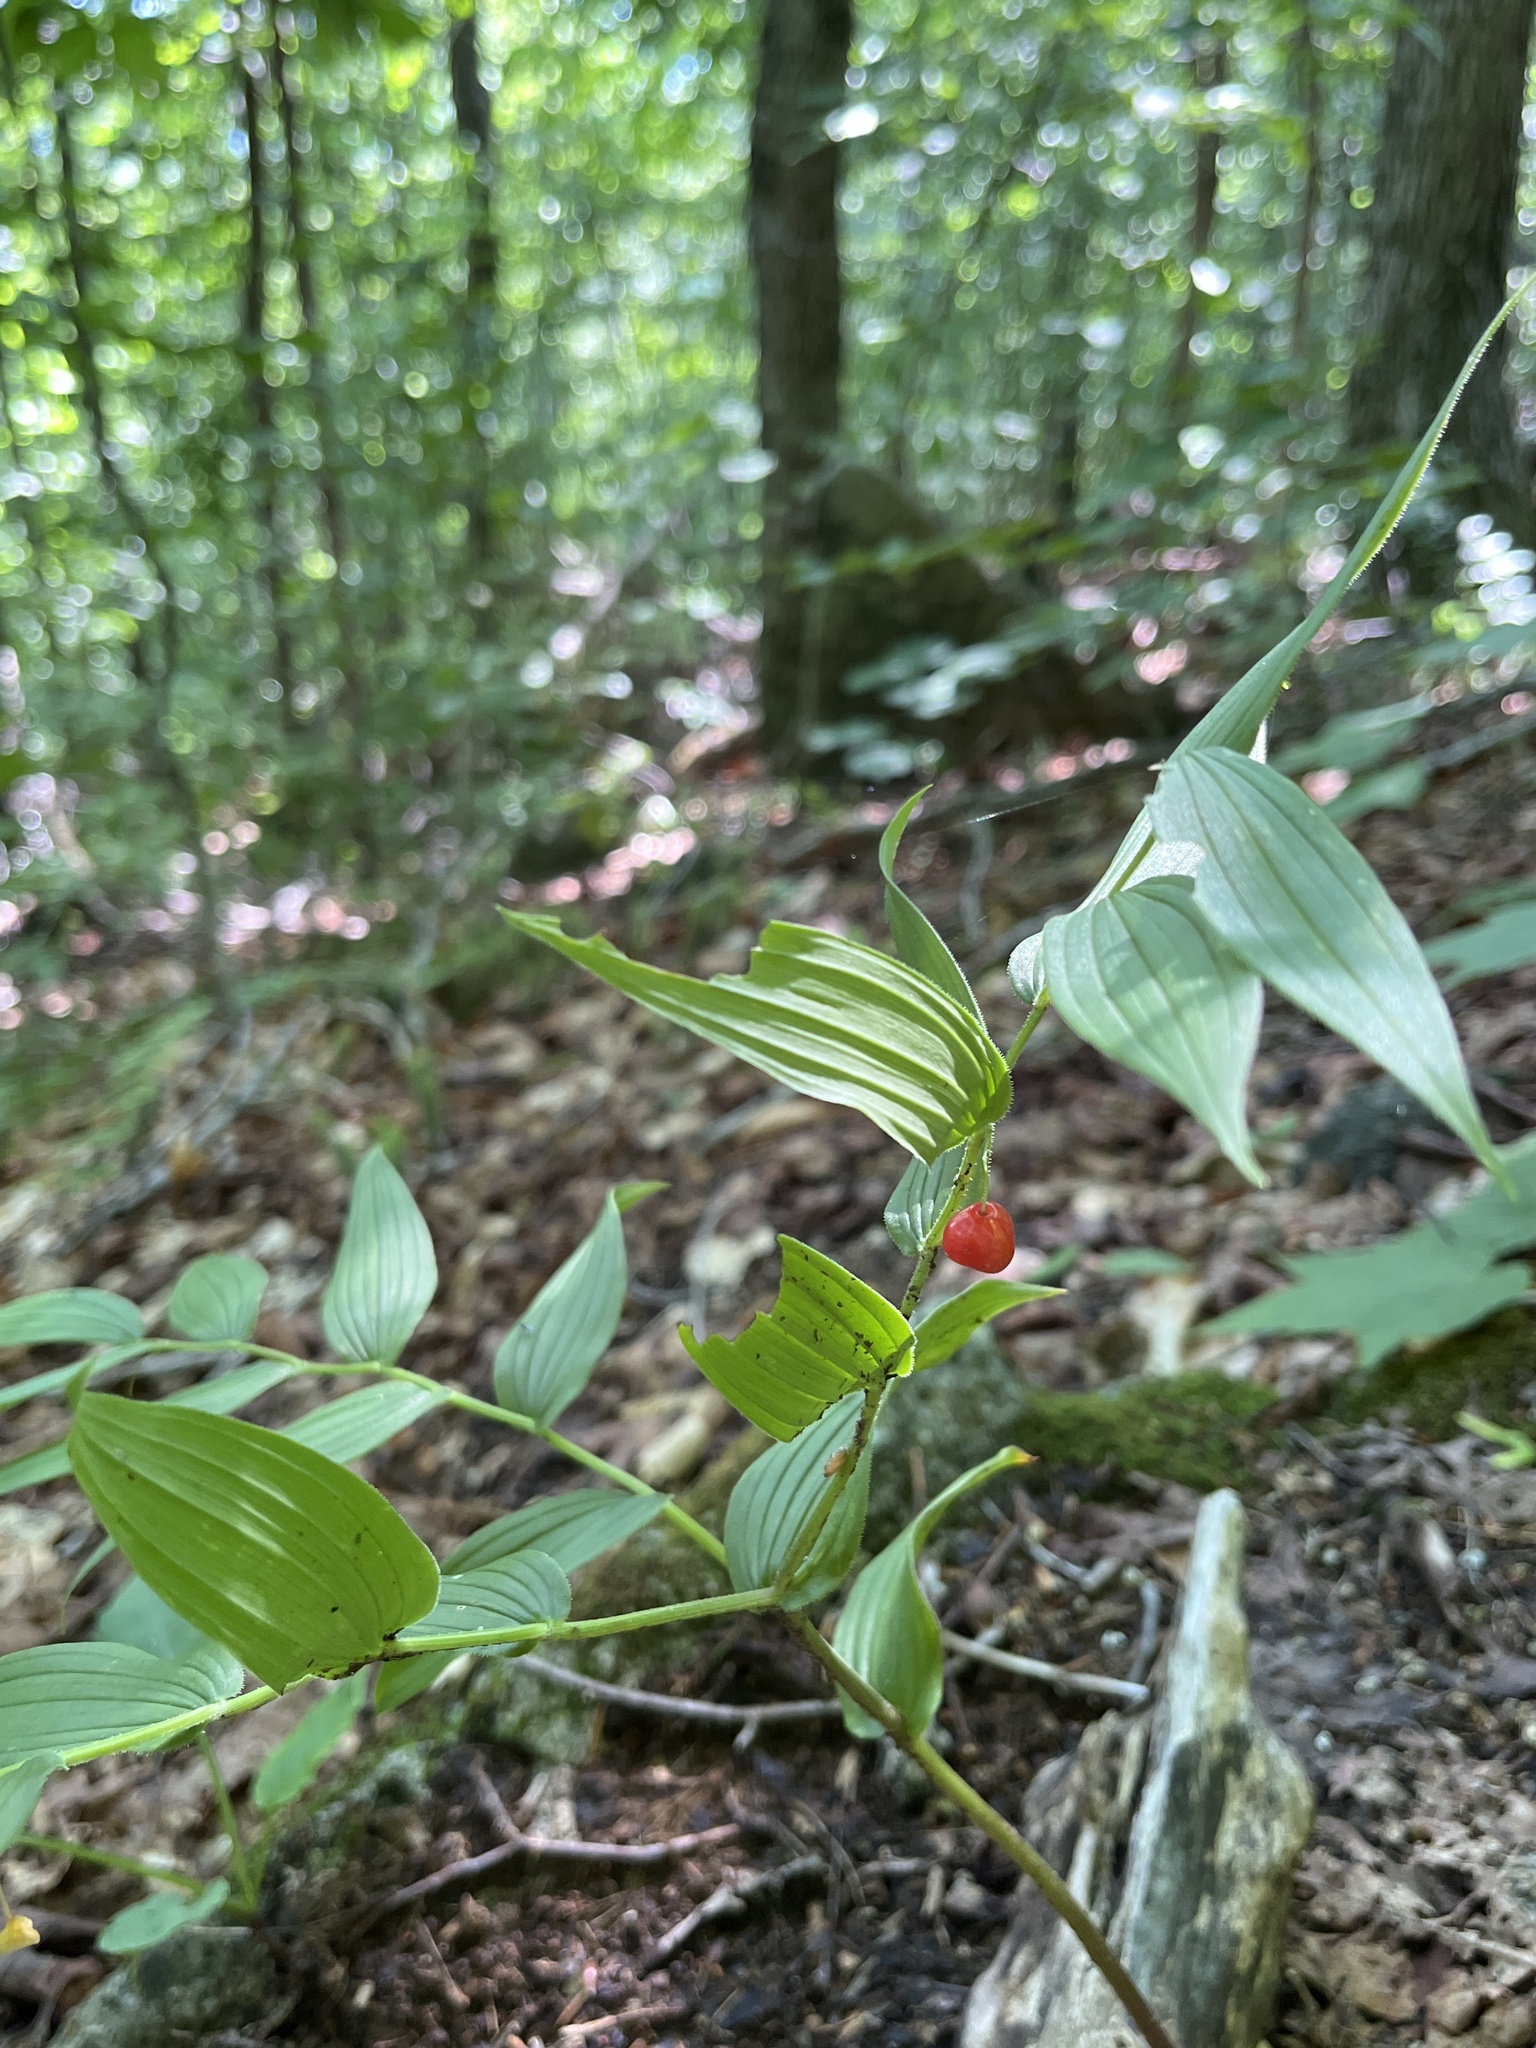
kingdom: Plantae
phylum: Tracheophyta
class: Liliopsida
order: Liliales
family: Liliaceae
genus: Streptopus
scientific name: Streptopus lanceolatus
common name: Rose mandarin
